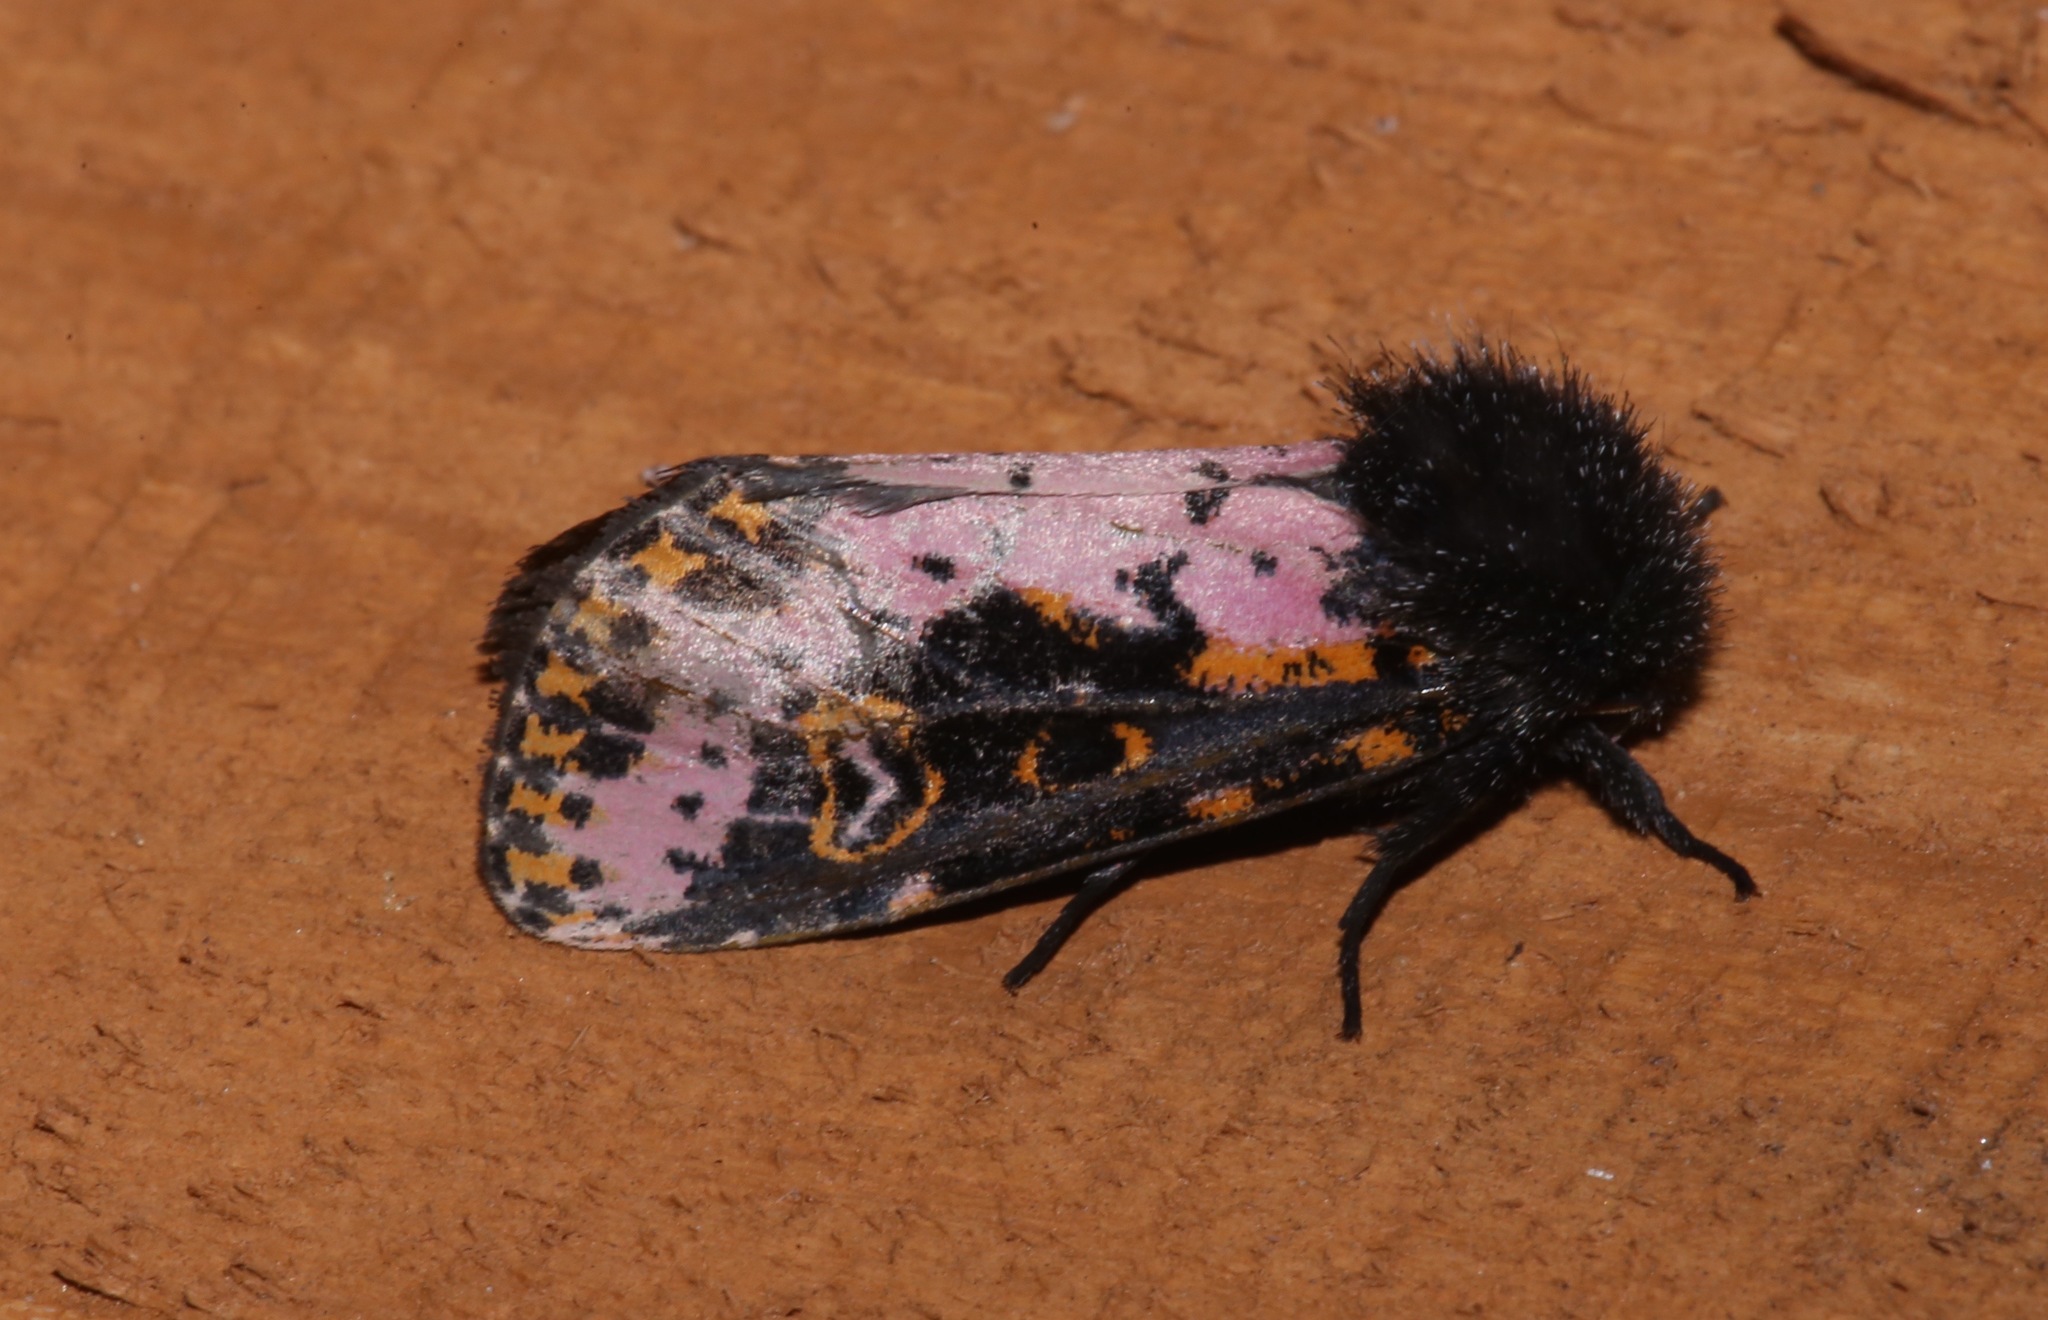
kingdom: Animalia
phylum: Arthropoda
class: Insecta
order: Lepidoptera
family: Noctuidae
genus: Xanthopastis
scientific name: Xanthopastis regnatrix
